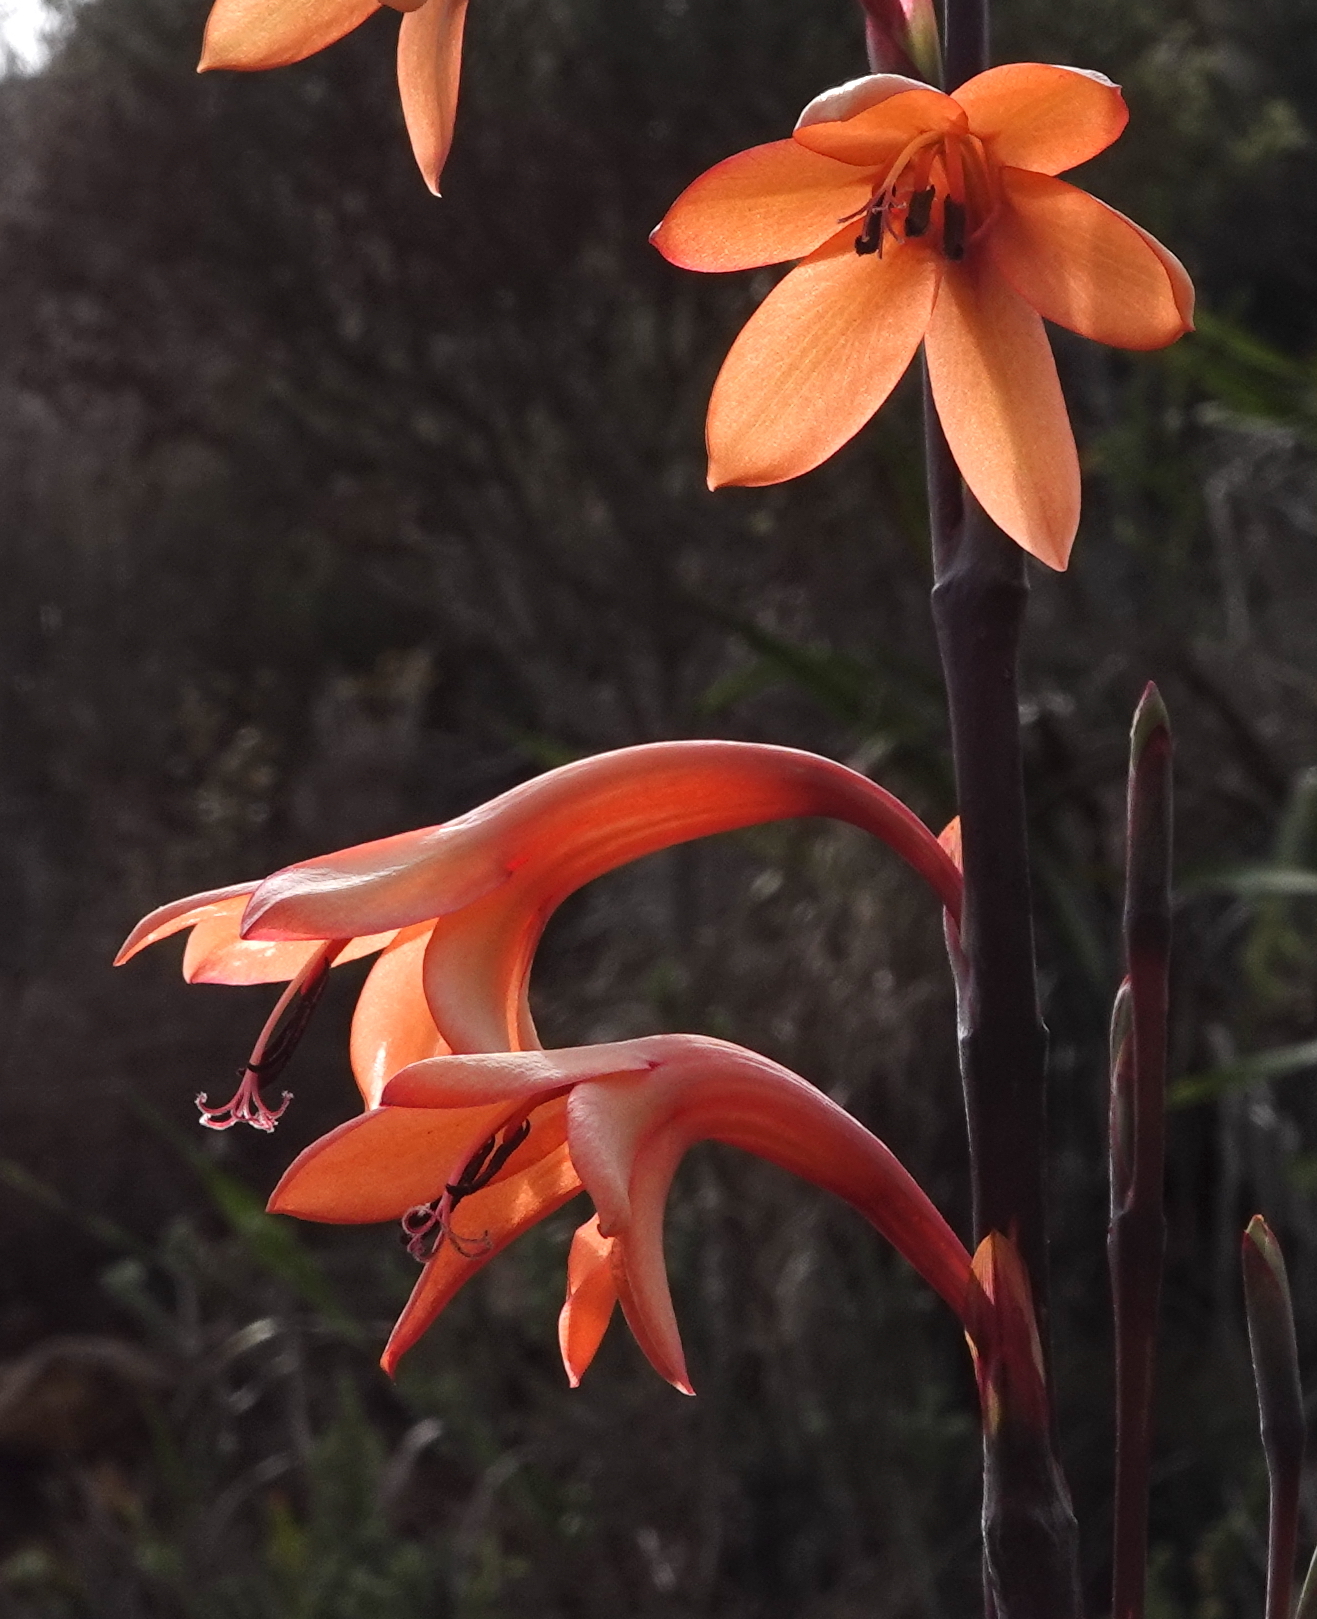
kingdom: Plantae
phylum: Tracheophyta
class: Liliopsida
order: Asparagales
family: Iridaceae
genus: Watsonia
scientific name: Watsonia meriana
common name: Bulbil bugle-lily
